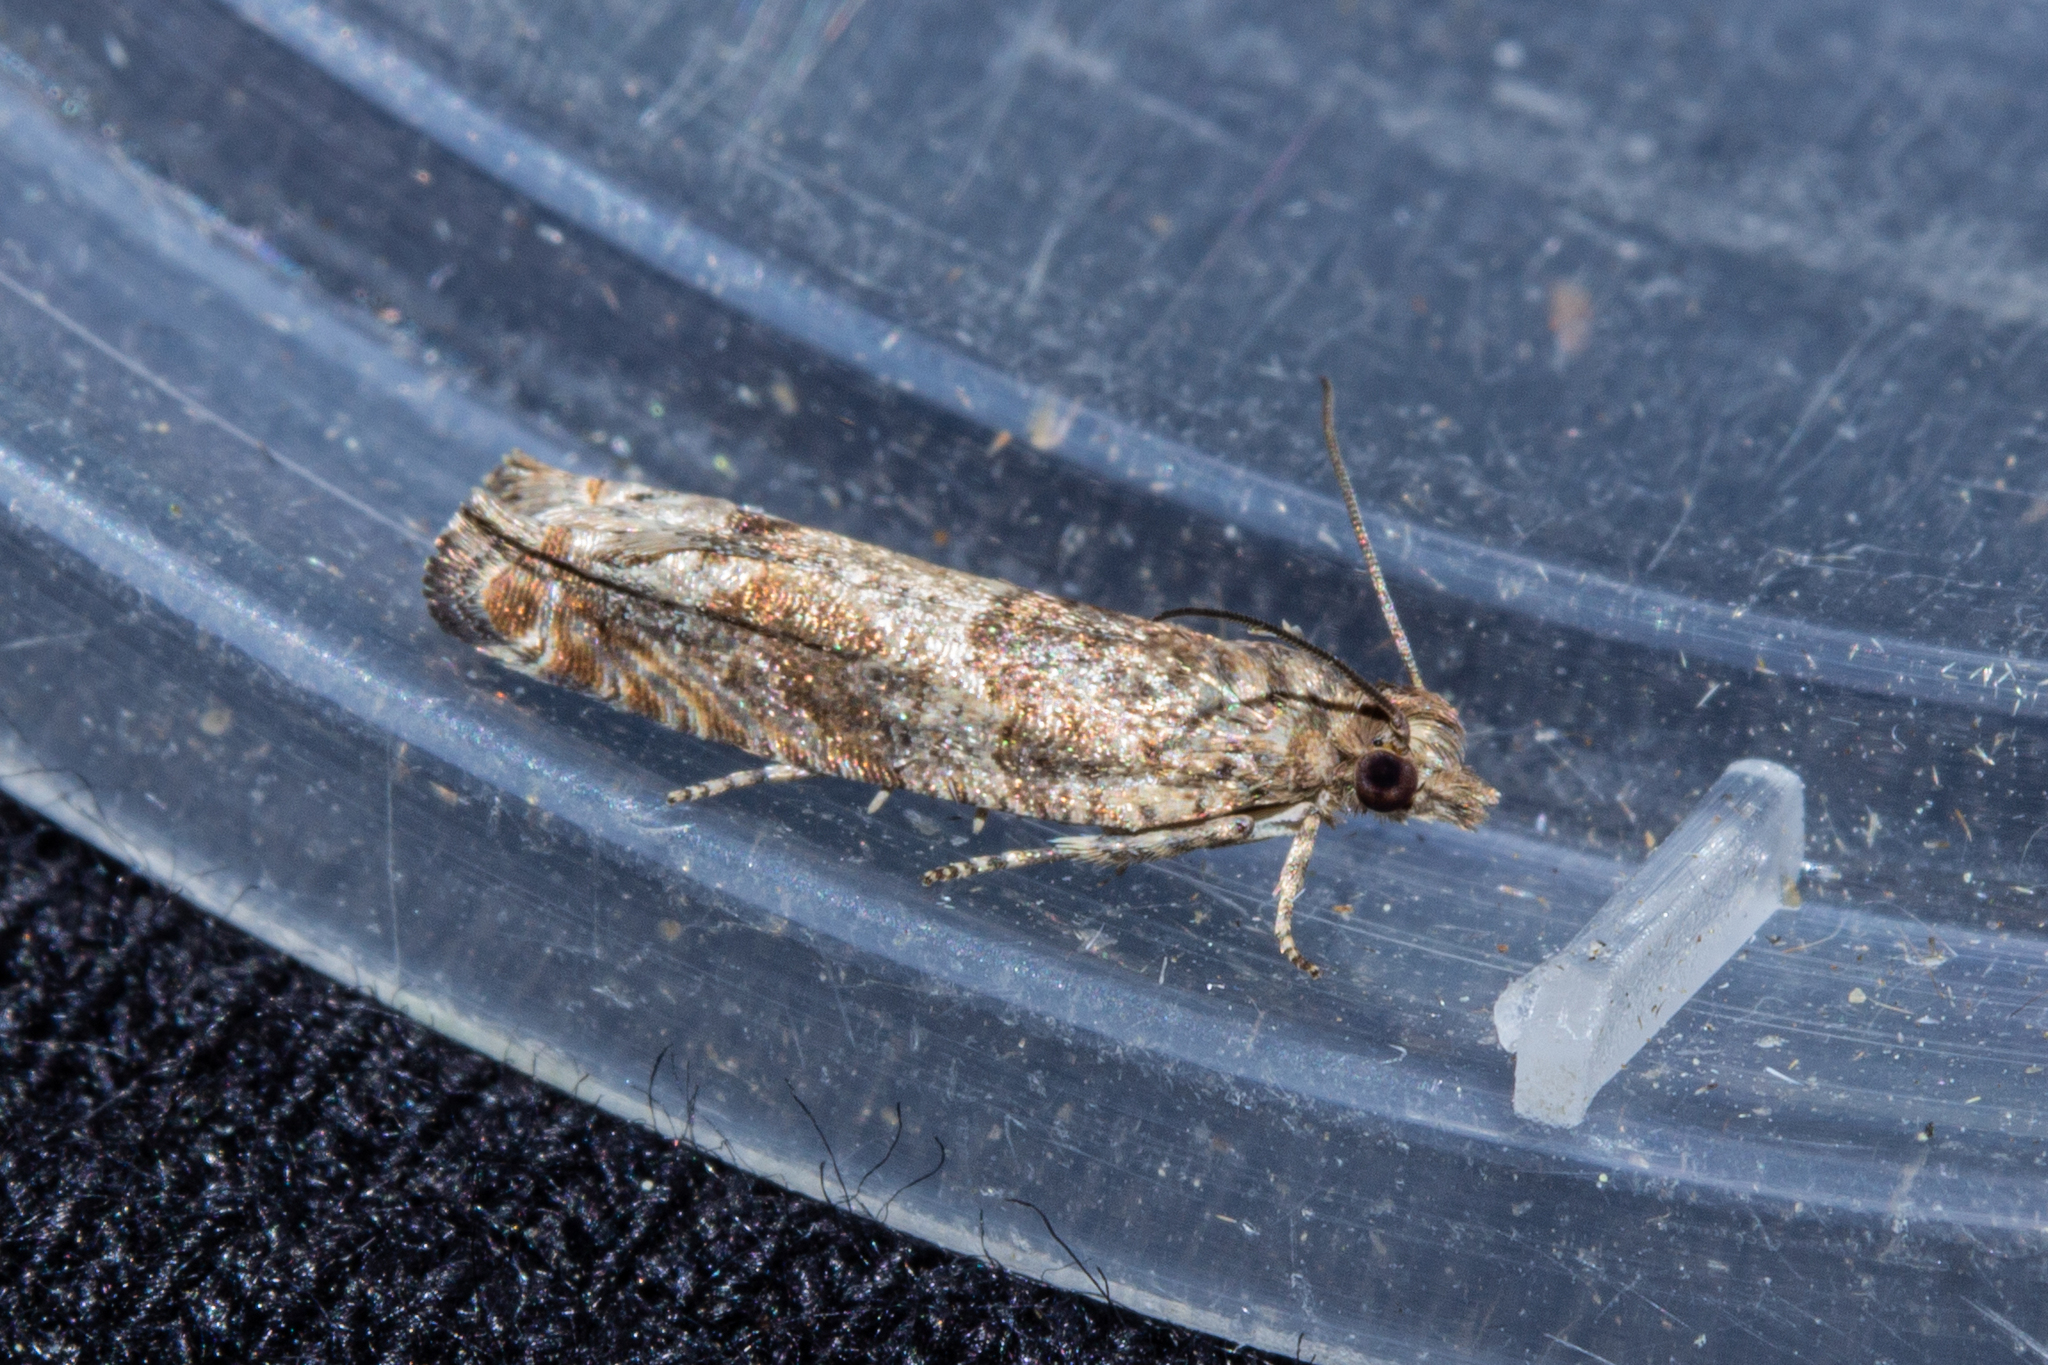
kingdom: Animalia
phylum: Arthropoda
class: Insecta
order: Lepidoptera
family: Tortricidae
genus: Strepsicrates
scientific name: Strepsicrates ejectana
